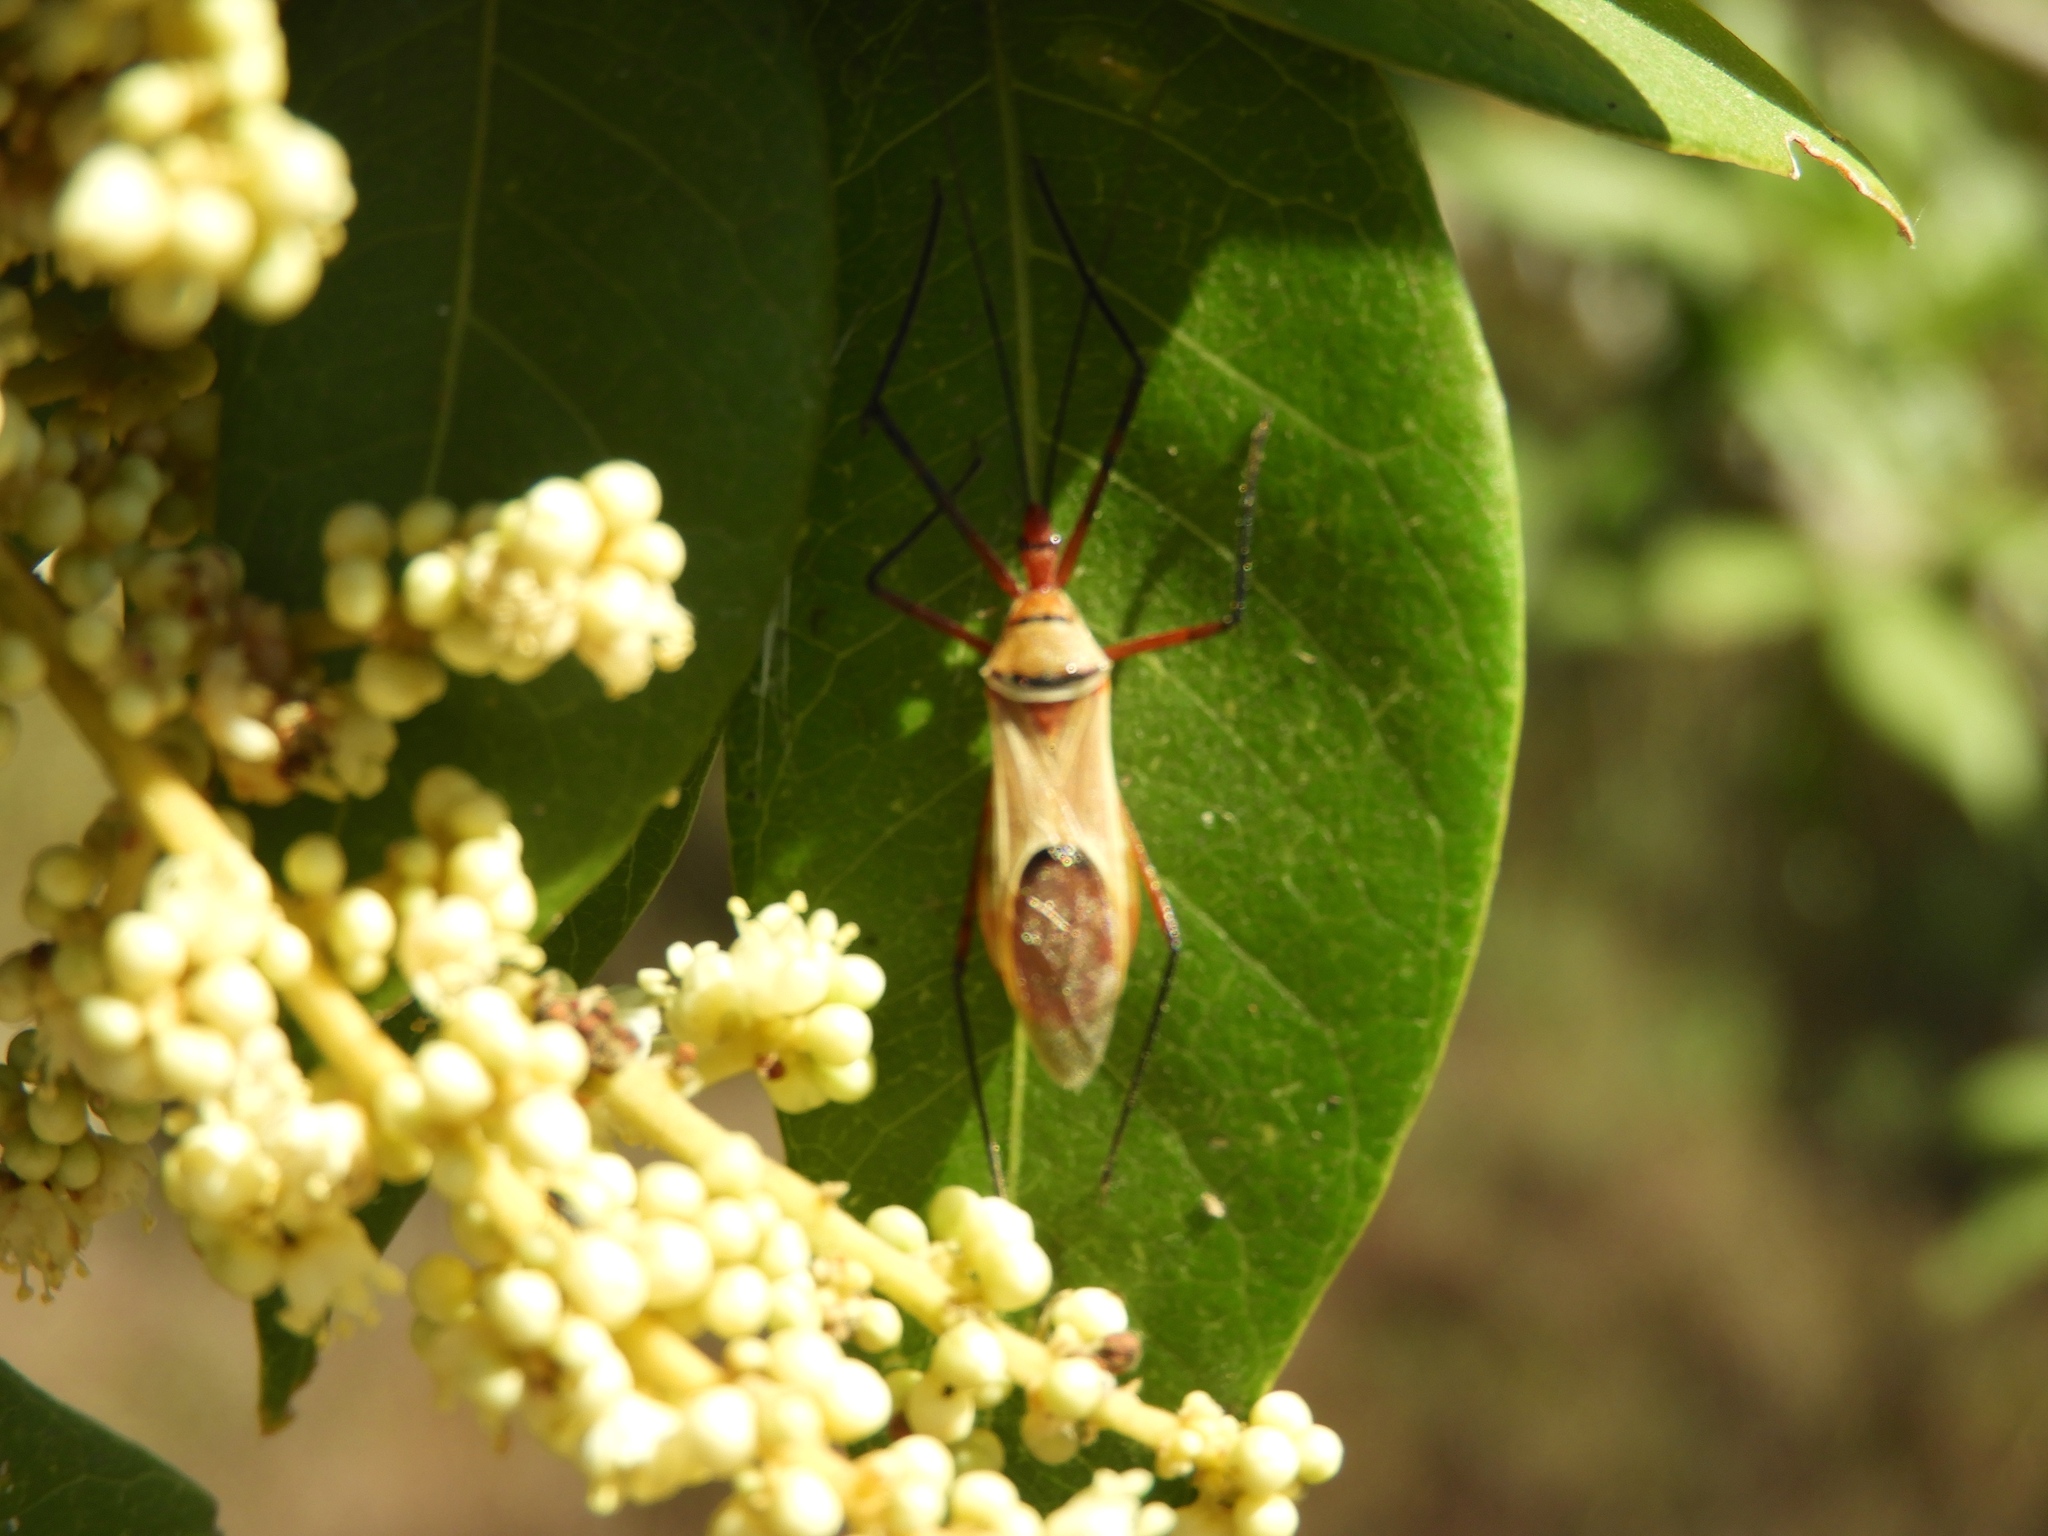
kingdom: Animalia
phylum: Arthropoda
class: Insecta
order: Hemiptera
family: Reduviidae
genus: Zelus
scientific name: Zelus grassans
